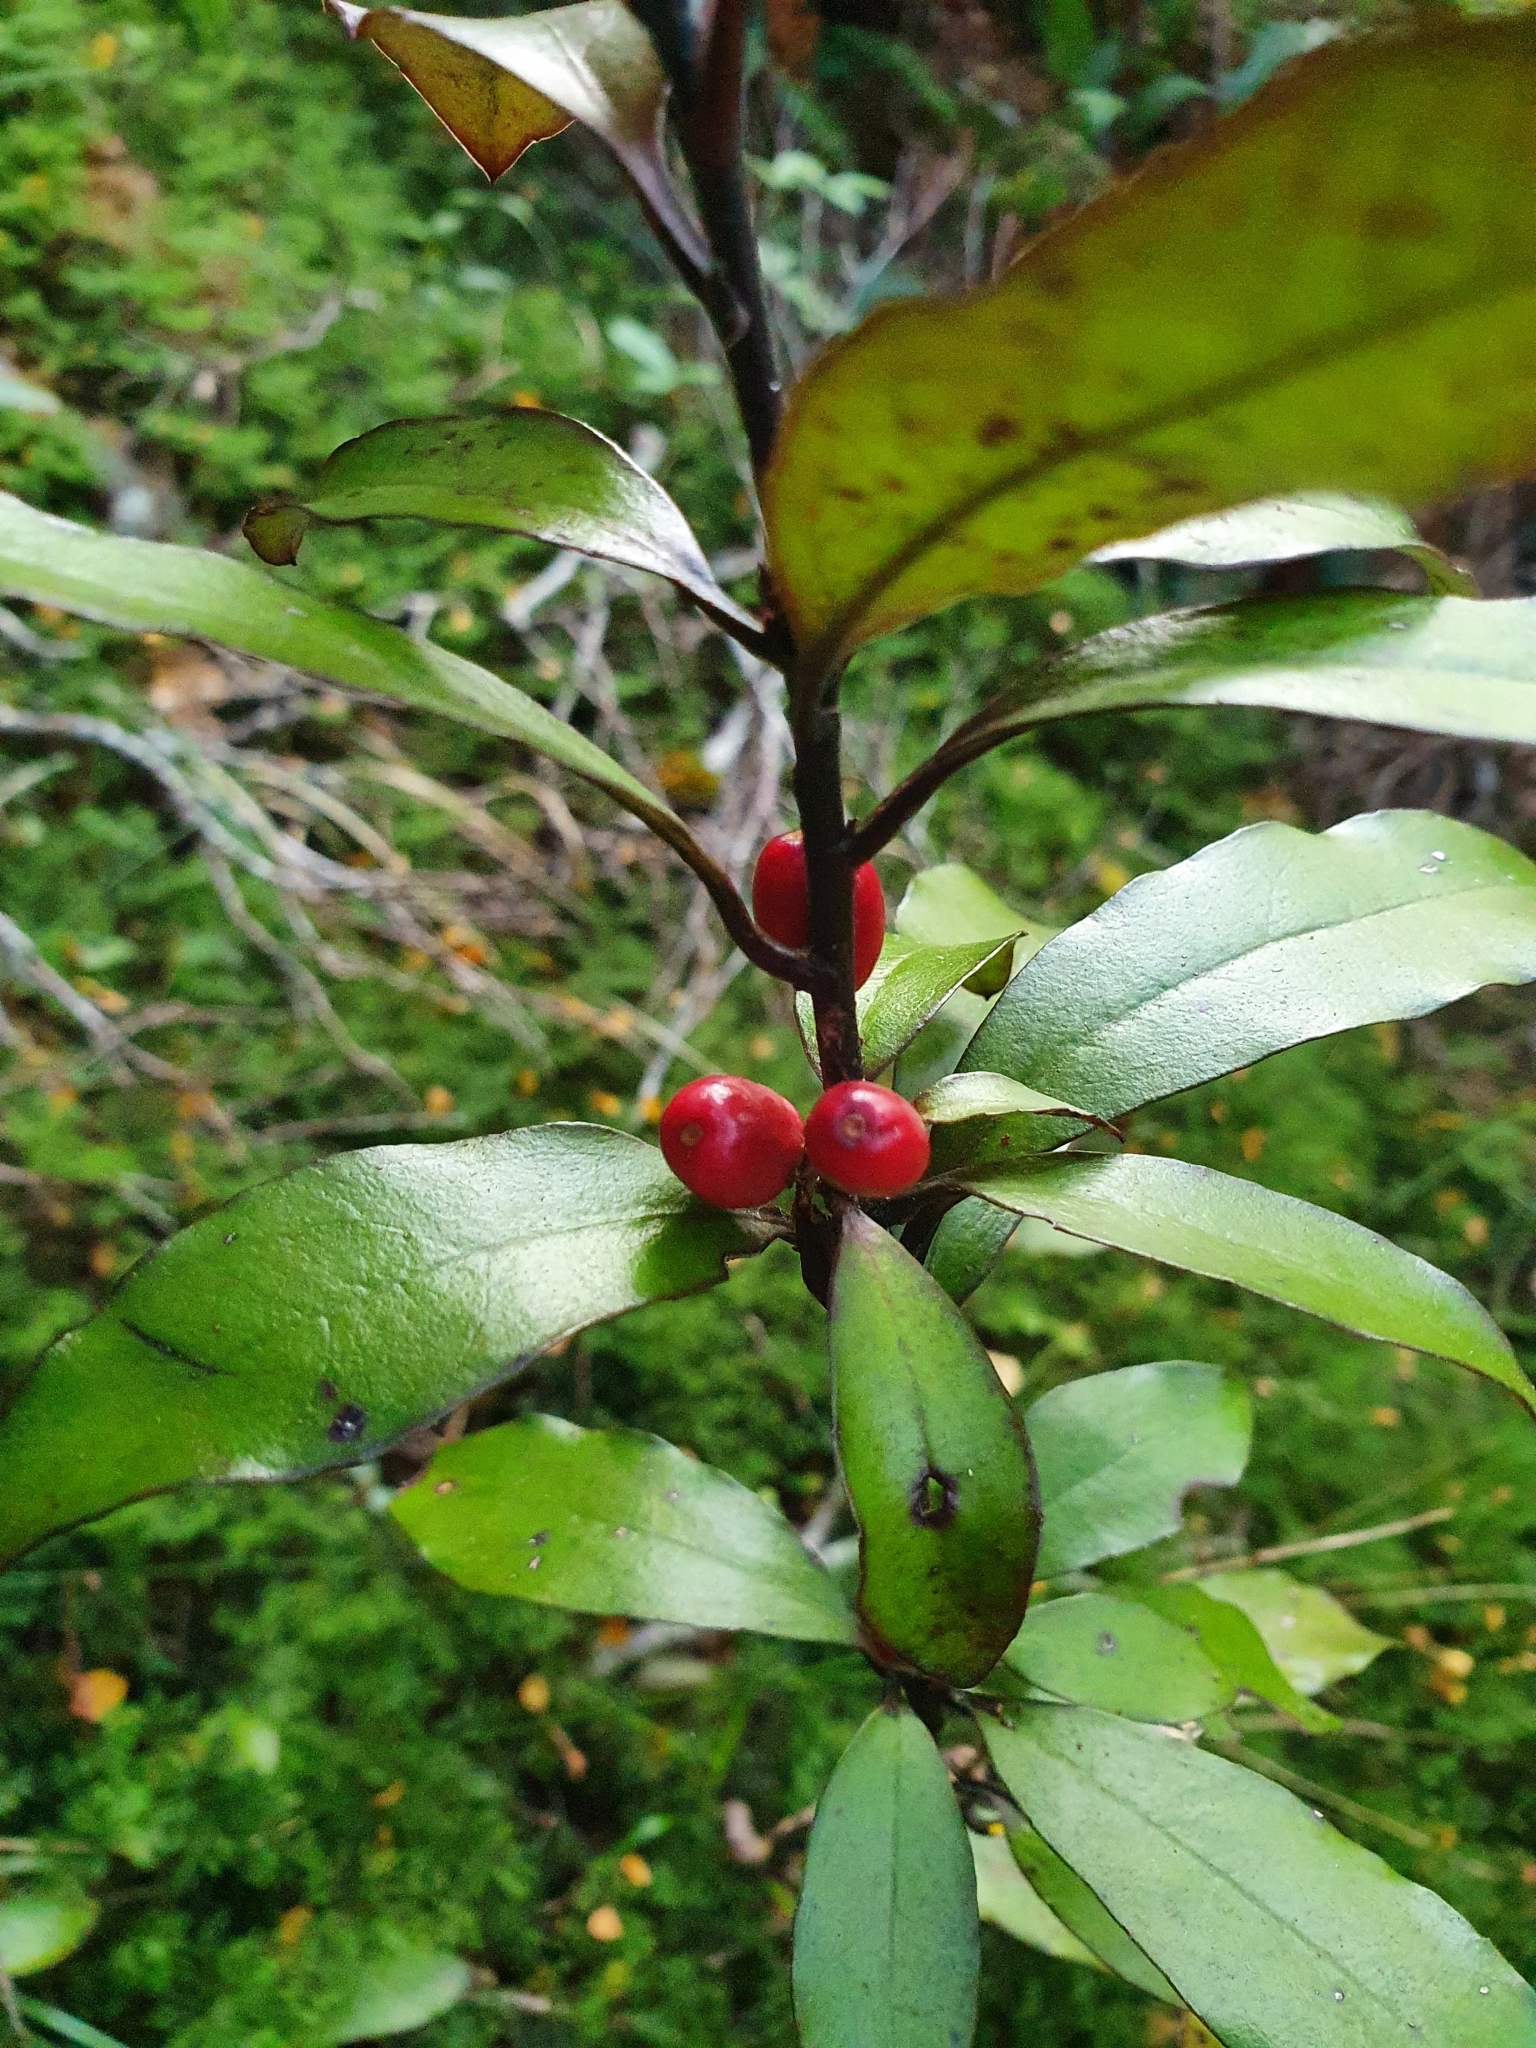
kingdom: Plantae
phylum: Tracheophyta
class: Magnoliopsida
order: Asterales
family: Alseuosmiaceae
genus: Alseuosmia
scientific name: Alseuosmia pusilla
